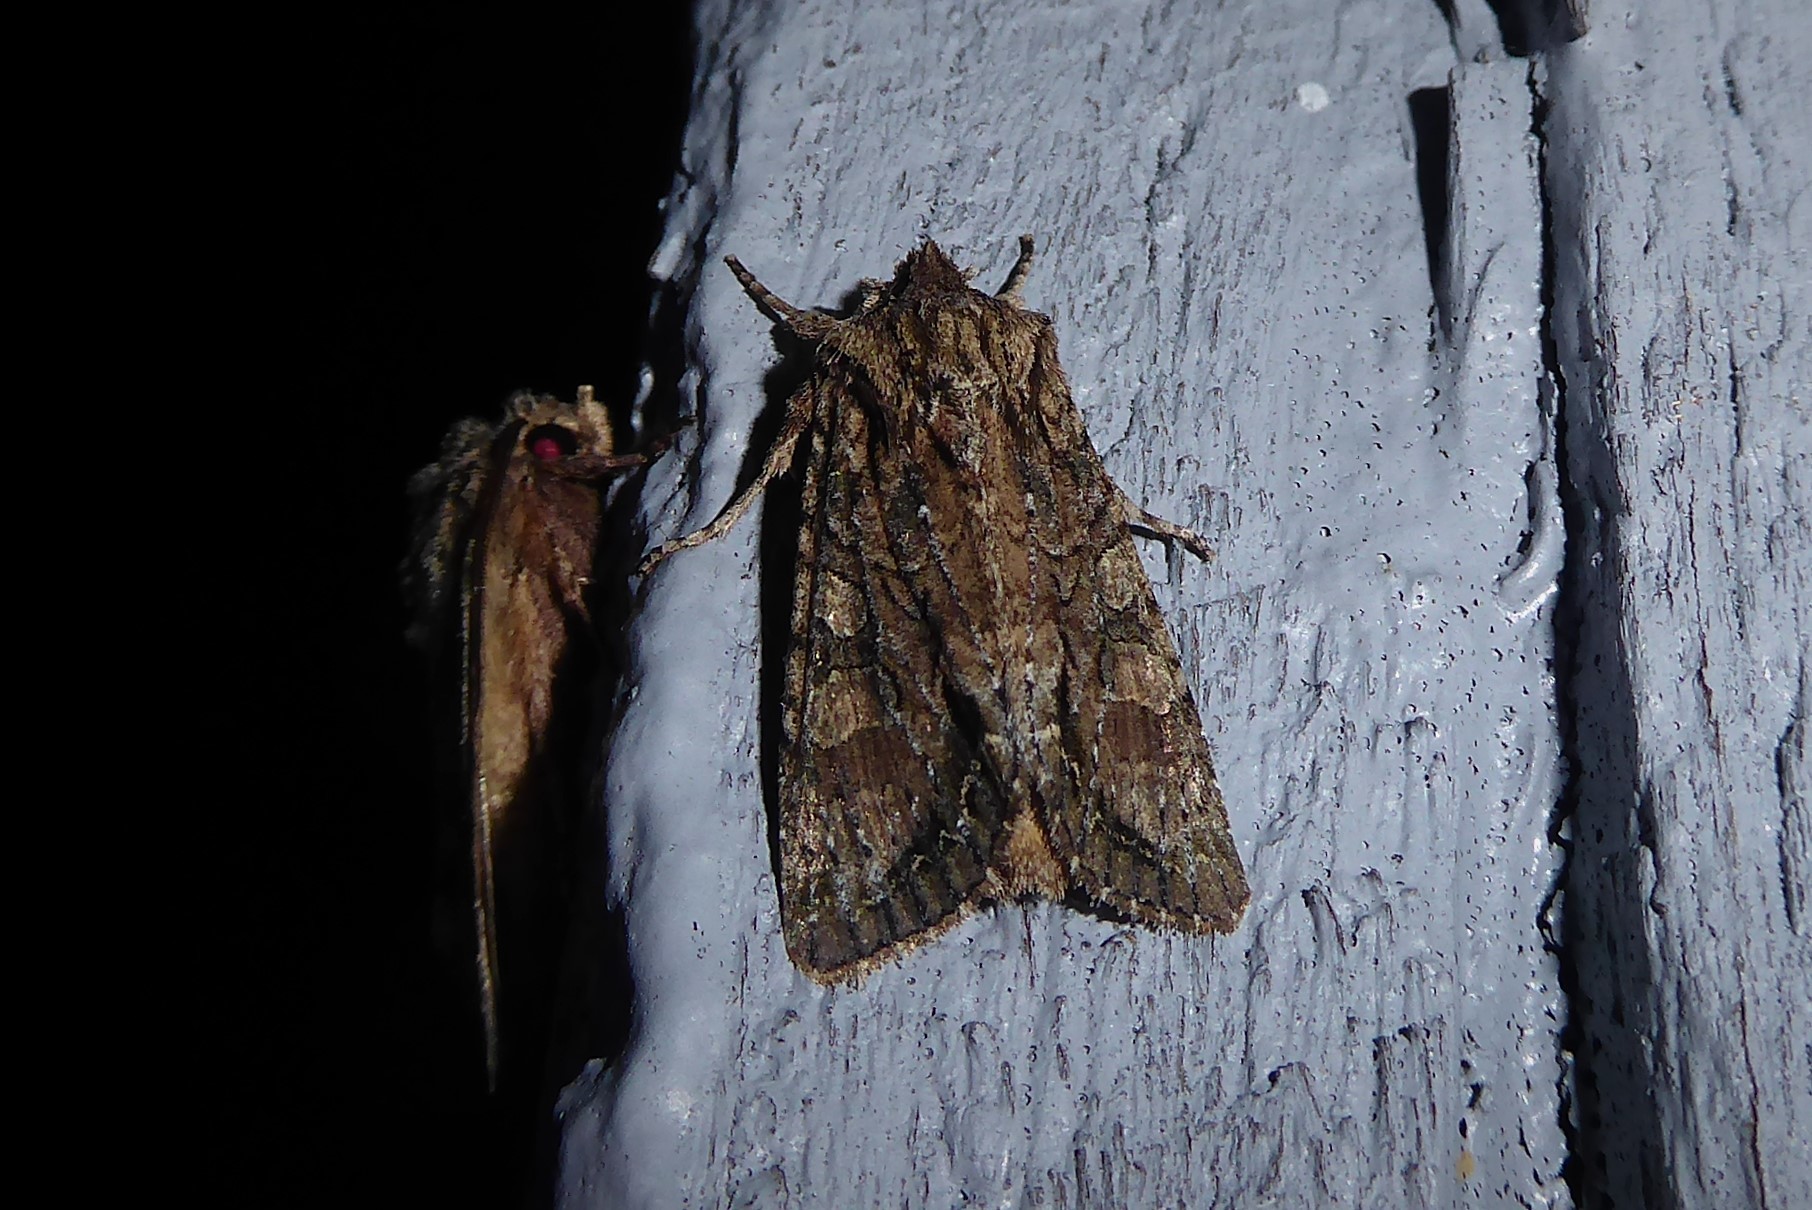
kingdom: Animalia
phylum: Arthropoda
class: Insecta
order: Lepidoptera
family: Noctuidae
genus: Ichneutica
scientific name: Ichneutica mutans
